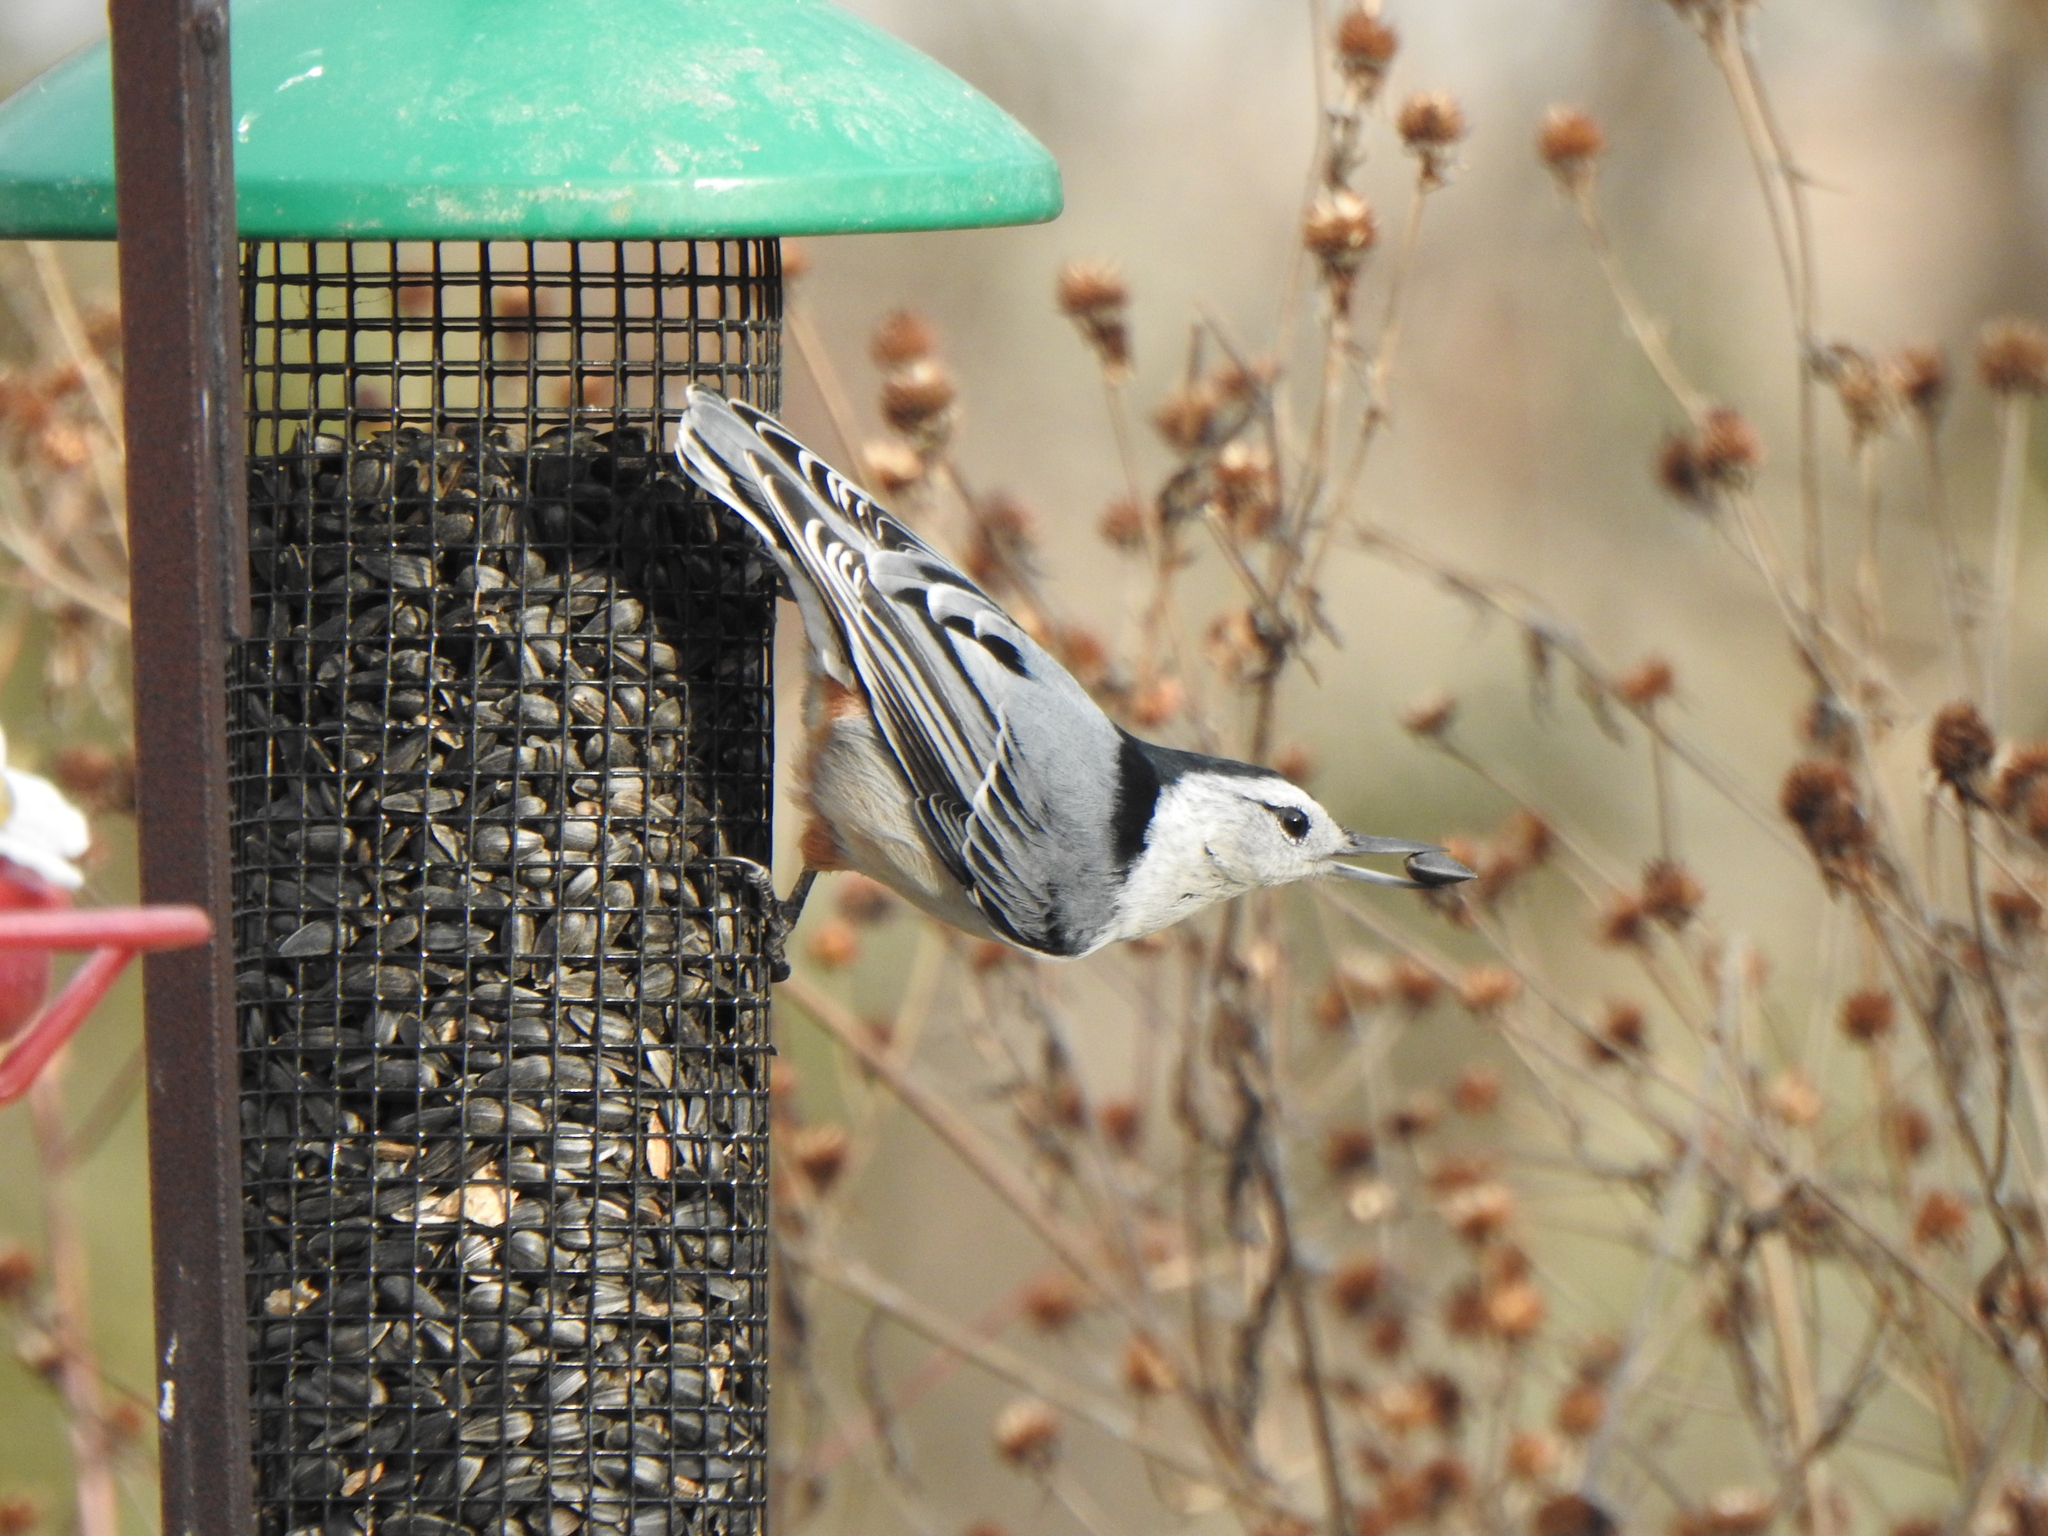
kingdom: Animalia
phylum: Chordata
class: Aves
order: Passeriformes
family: Sittidae
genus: Sitta
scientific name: Sitta carolinensis
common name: White-breasted nuthatch
